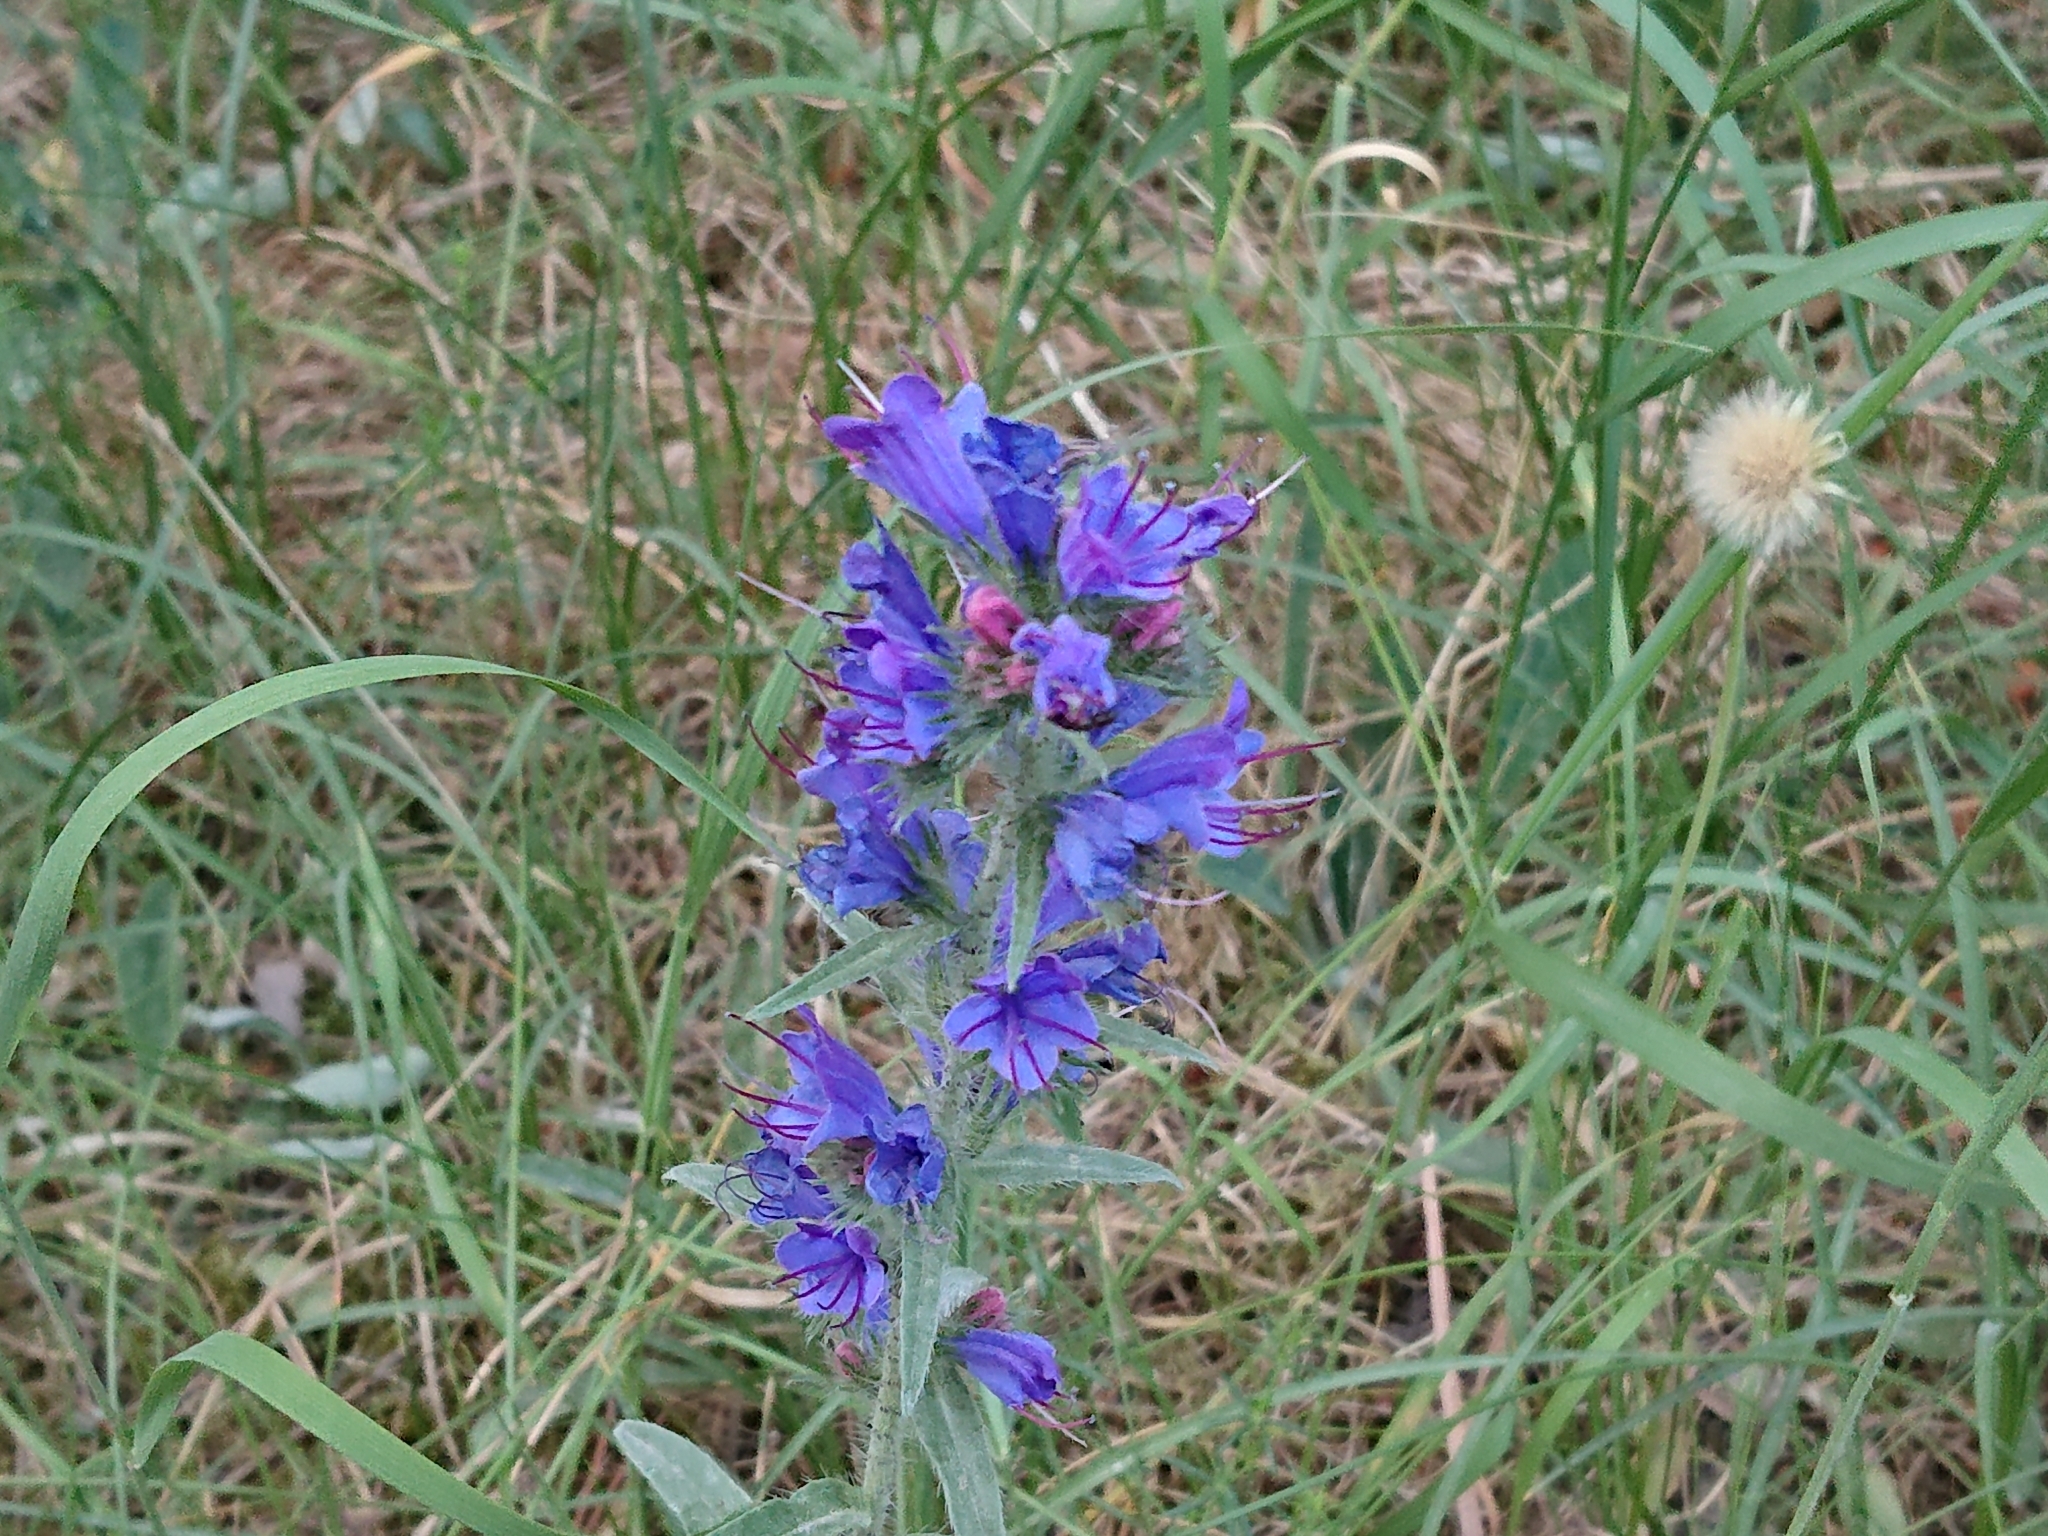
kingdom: Plantae
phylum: Tracheophyta
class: Magnoliopsida
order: Boraginales
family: Boraginaceae
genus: Echium
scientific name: Echium vulgare
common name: Common viper's bugloss
